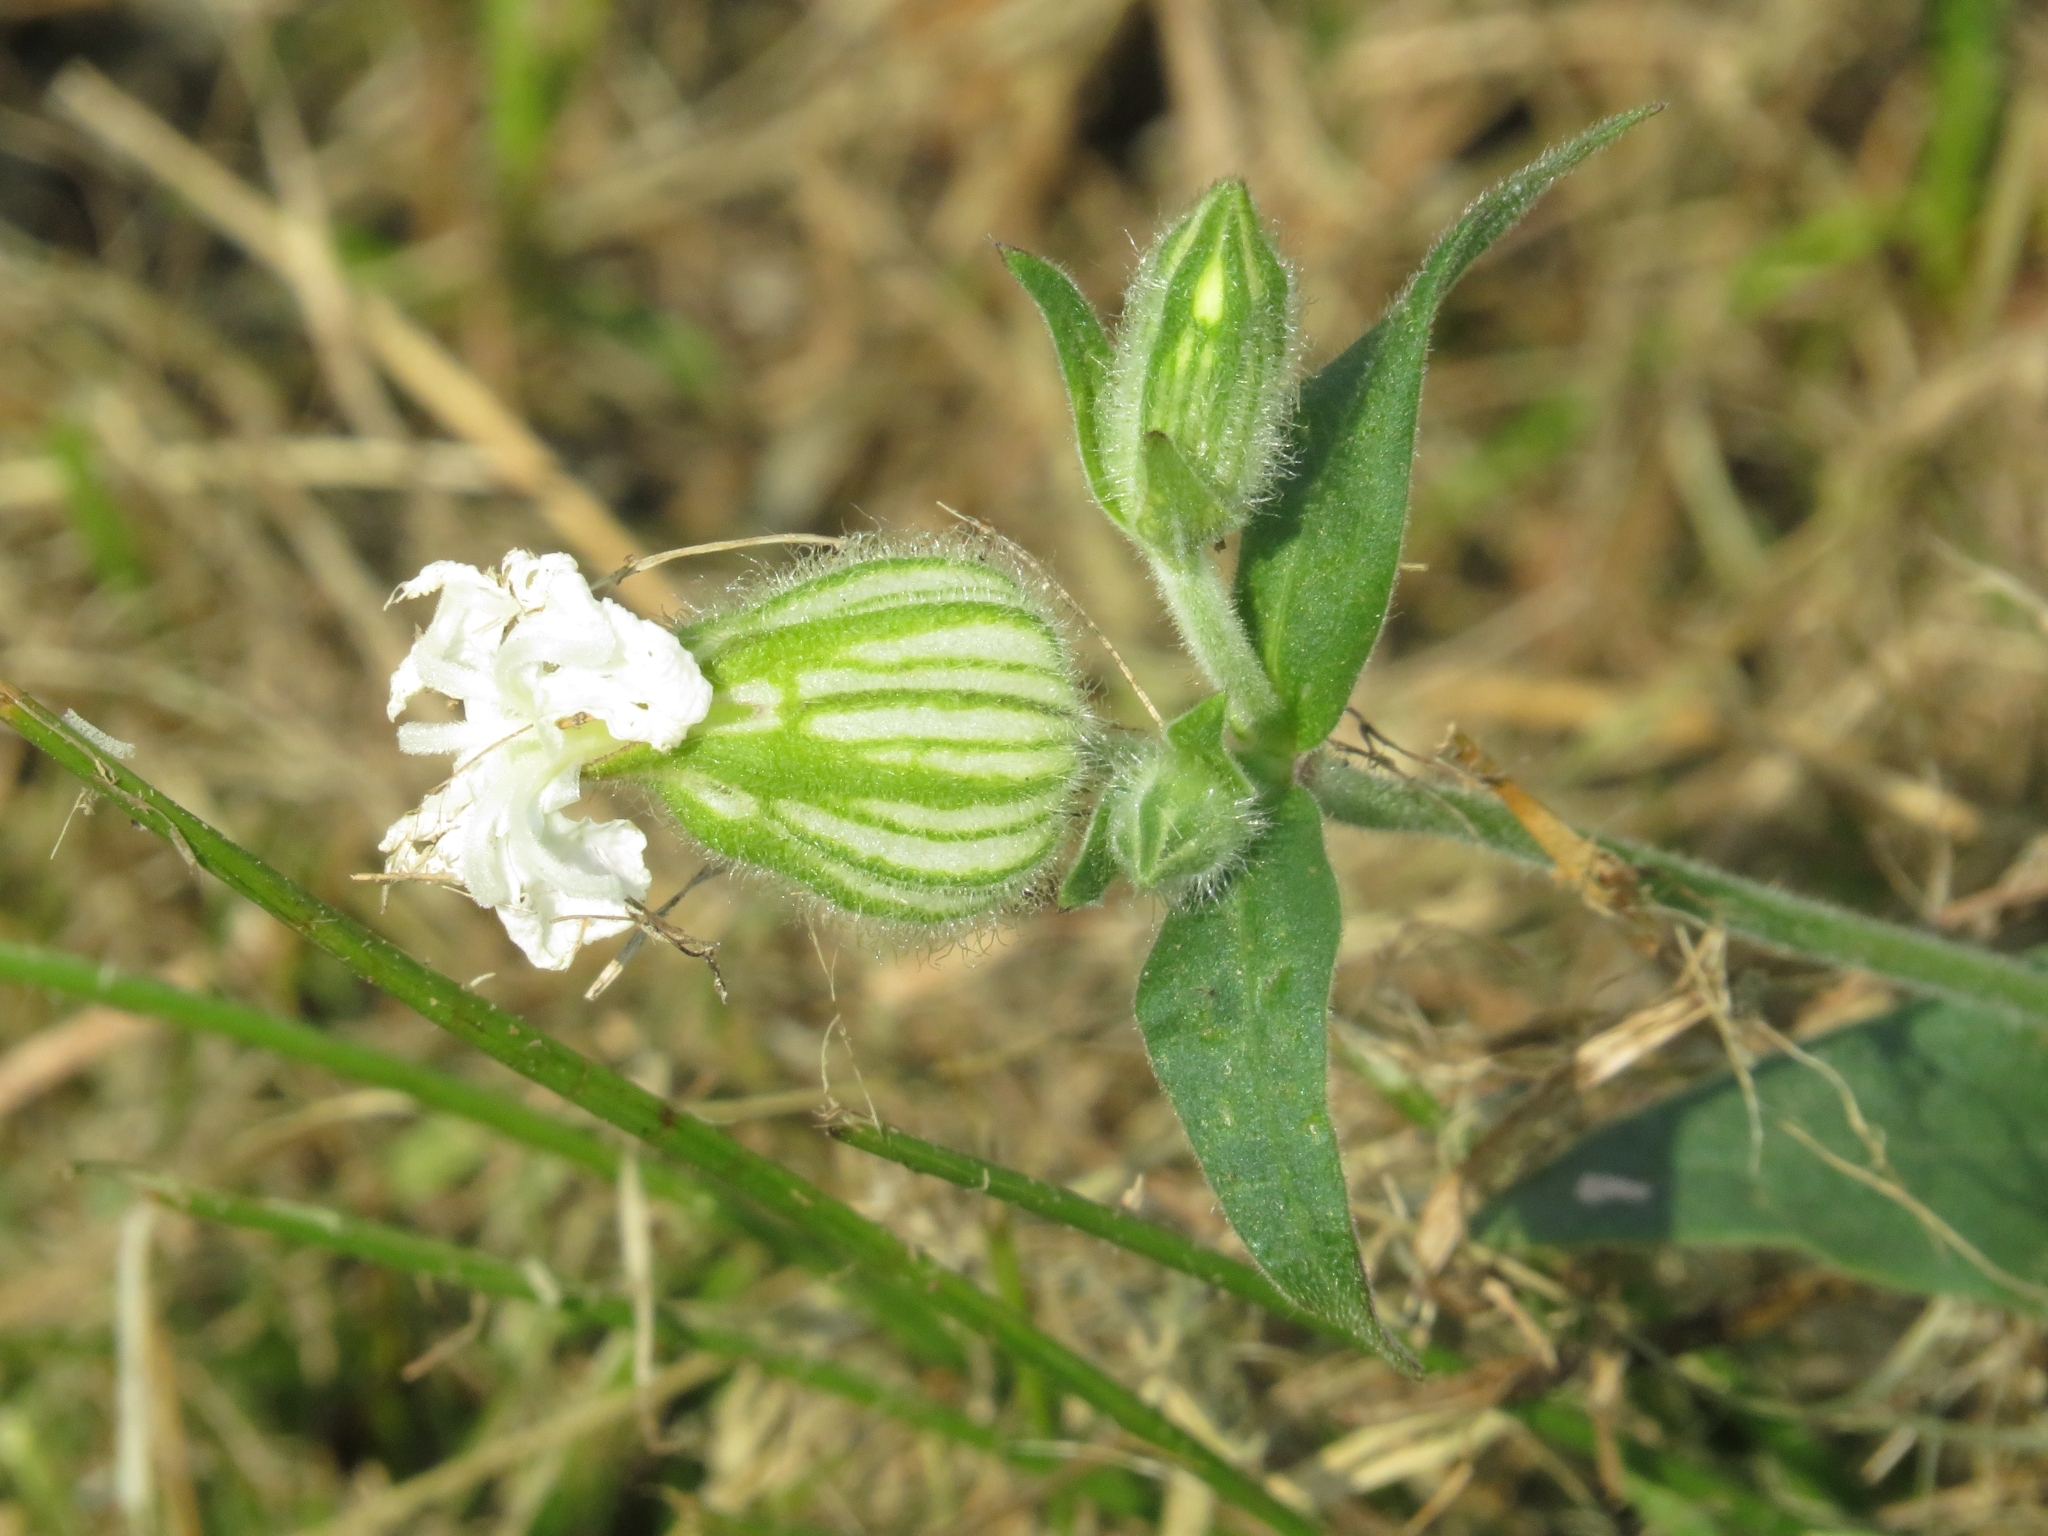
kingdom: Plantae
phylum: Tracheophyta
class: Magnoliopsida
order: Caryophyllales
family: Caryophyllaceae
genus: Silene
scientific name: Silene latifolia
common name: White campion
